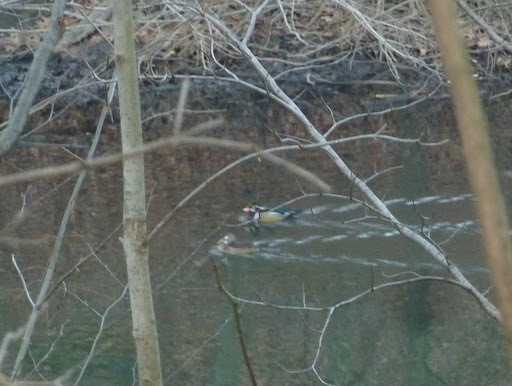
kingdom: Animalia
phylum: Chordata
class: Aves
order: Anseriformes
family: Anatidae
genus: Aix
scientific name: Aix sponsa
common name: Wood duck
